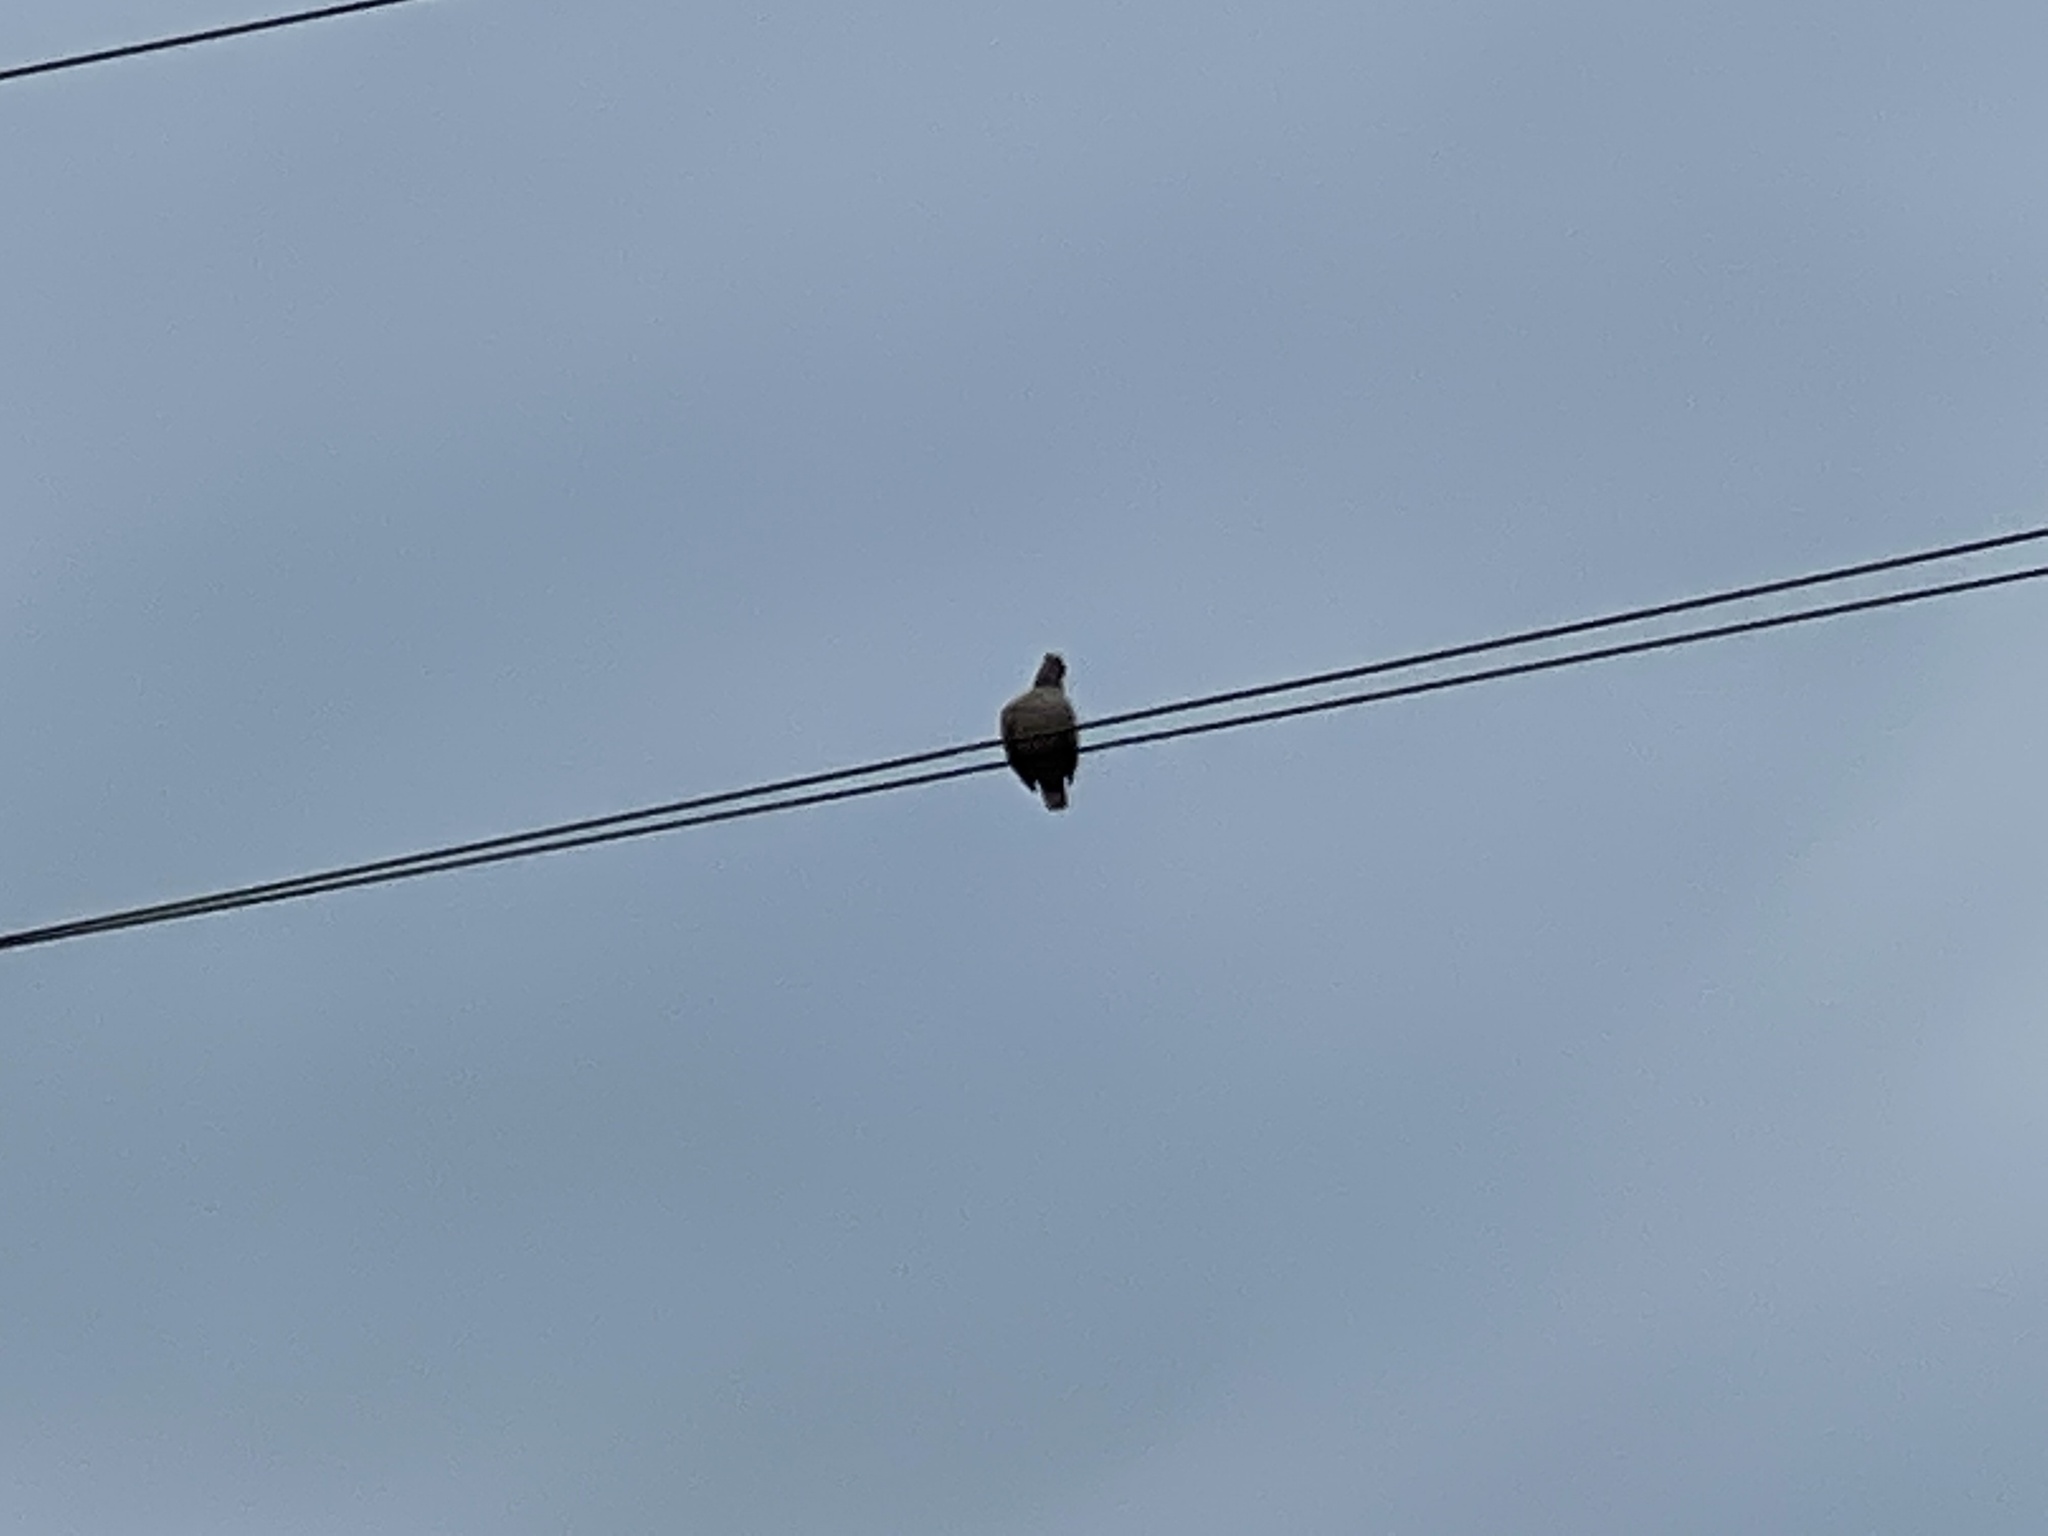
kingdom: Animalia
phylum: Chordata
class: Aves
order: Columbiformes
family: Columbidae
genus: Zenaida
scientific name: Zenaida macroura
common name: Mourning dove
